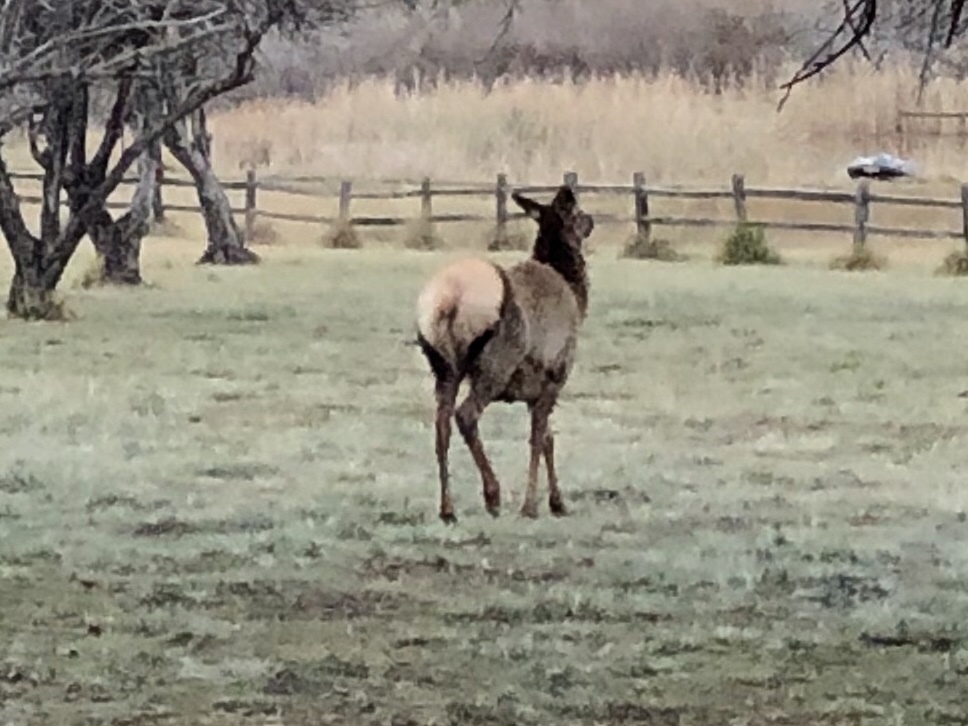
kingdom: Animalia
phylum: Chordata
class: Mammalia
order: Artiodactyla
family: Cervidae
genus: Cervus
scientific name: Cervus elaphus
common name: Red deer
